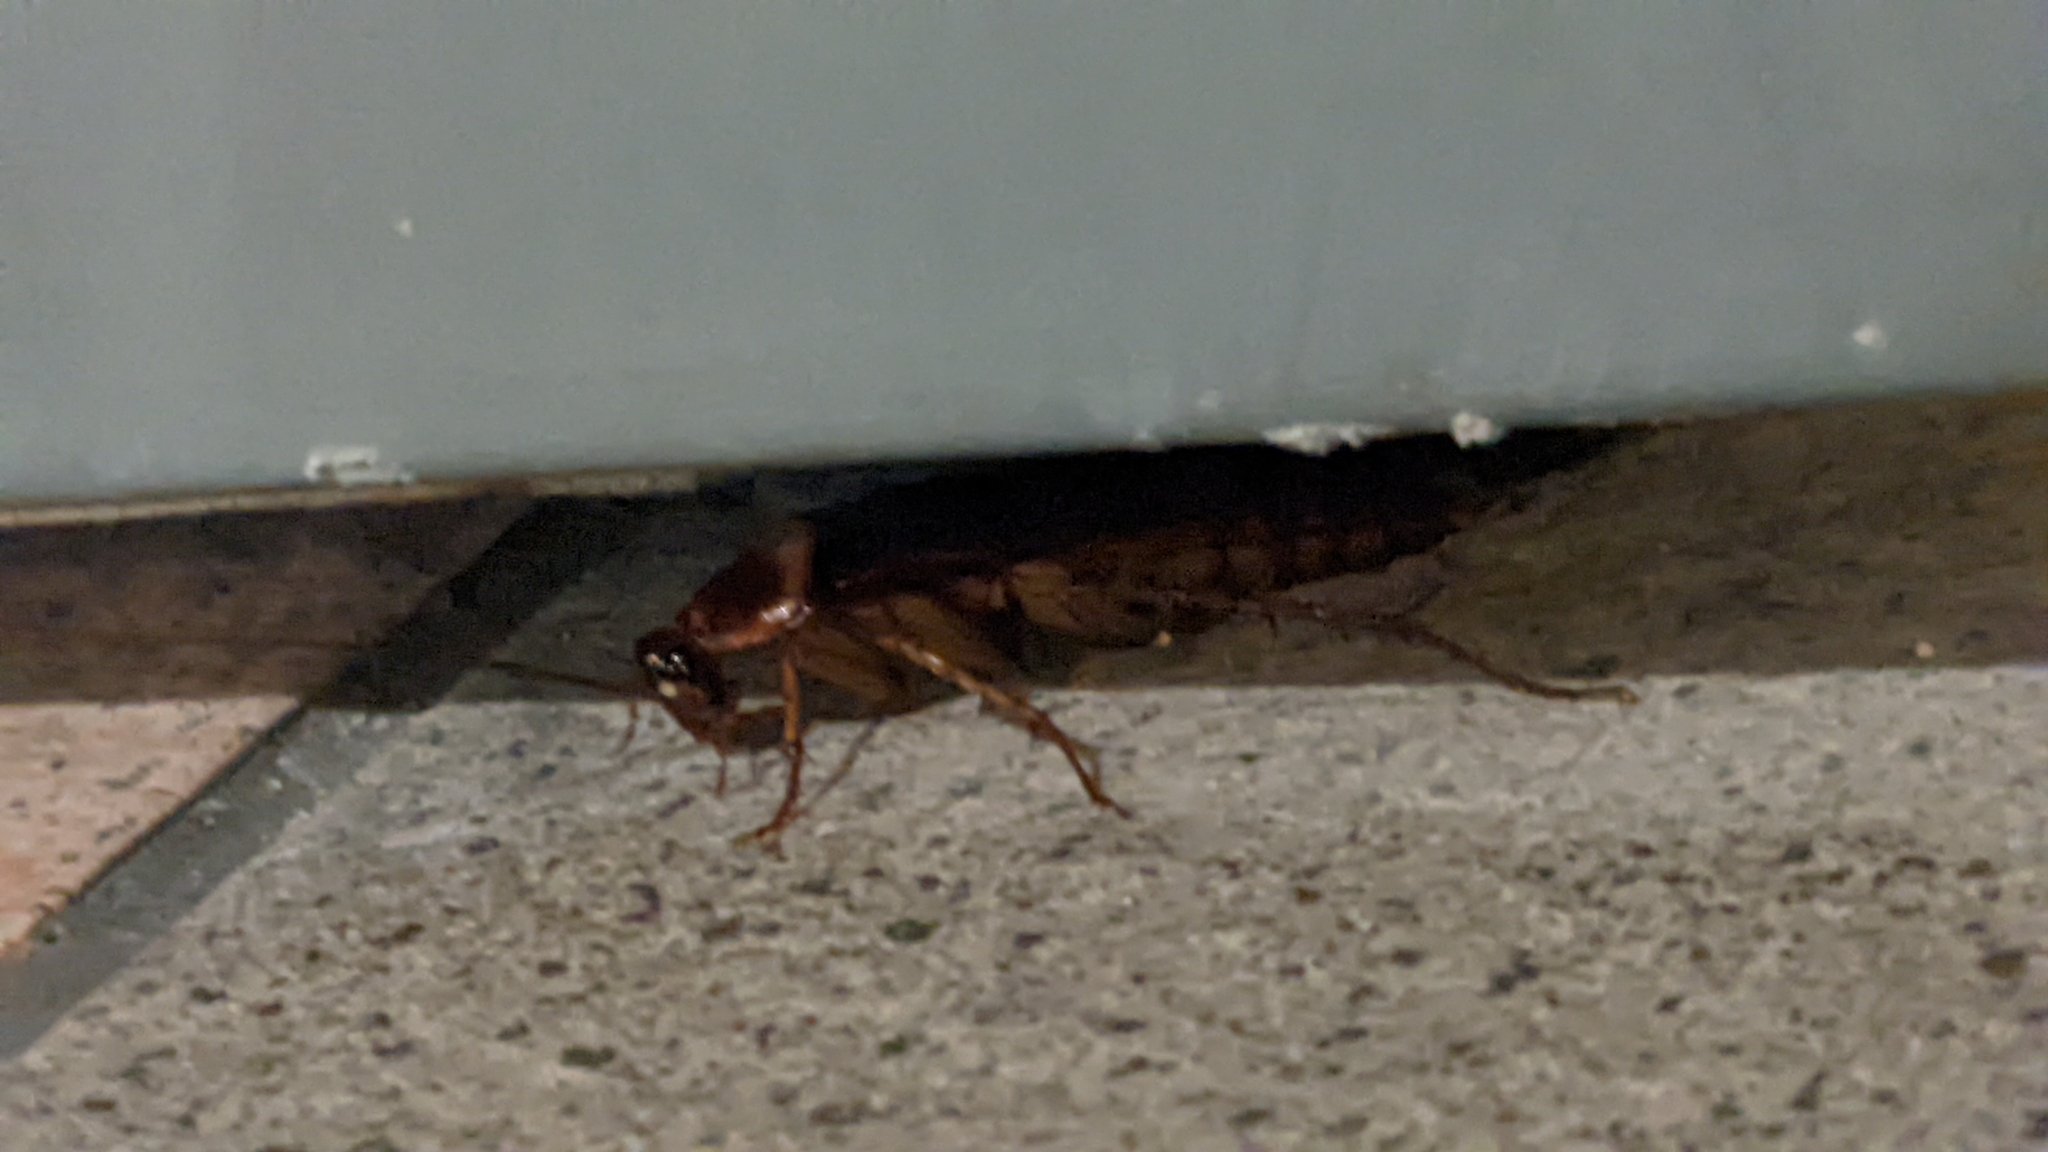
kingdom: Animalia
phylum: Arthropoda
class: Insecta
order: Blattodea
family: Blattidae
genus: Periplaneta
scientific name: Periplaneta americana
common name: American cockroach
